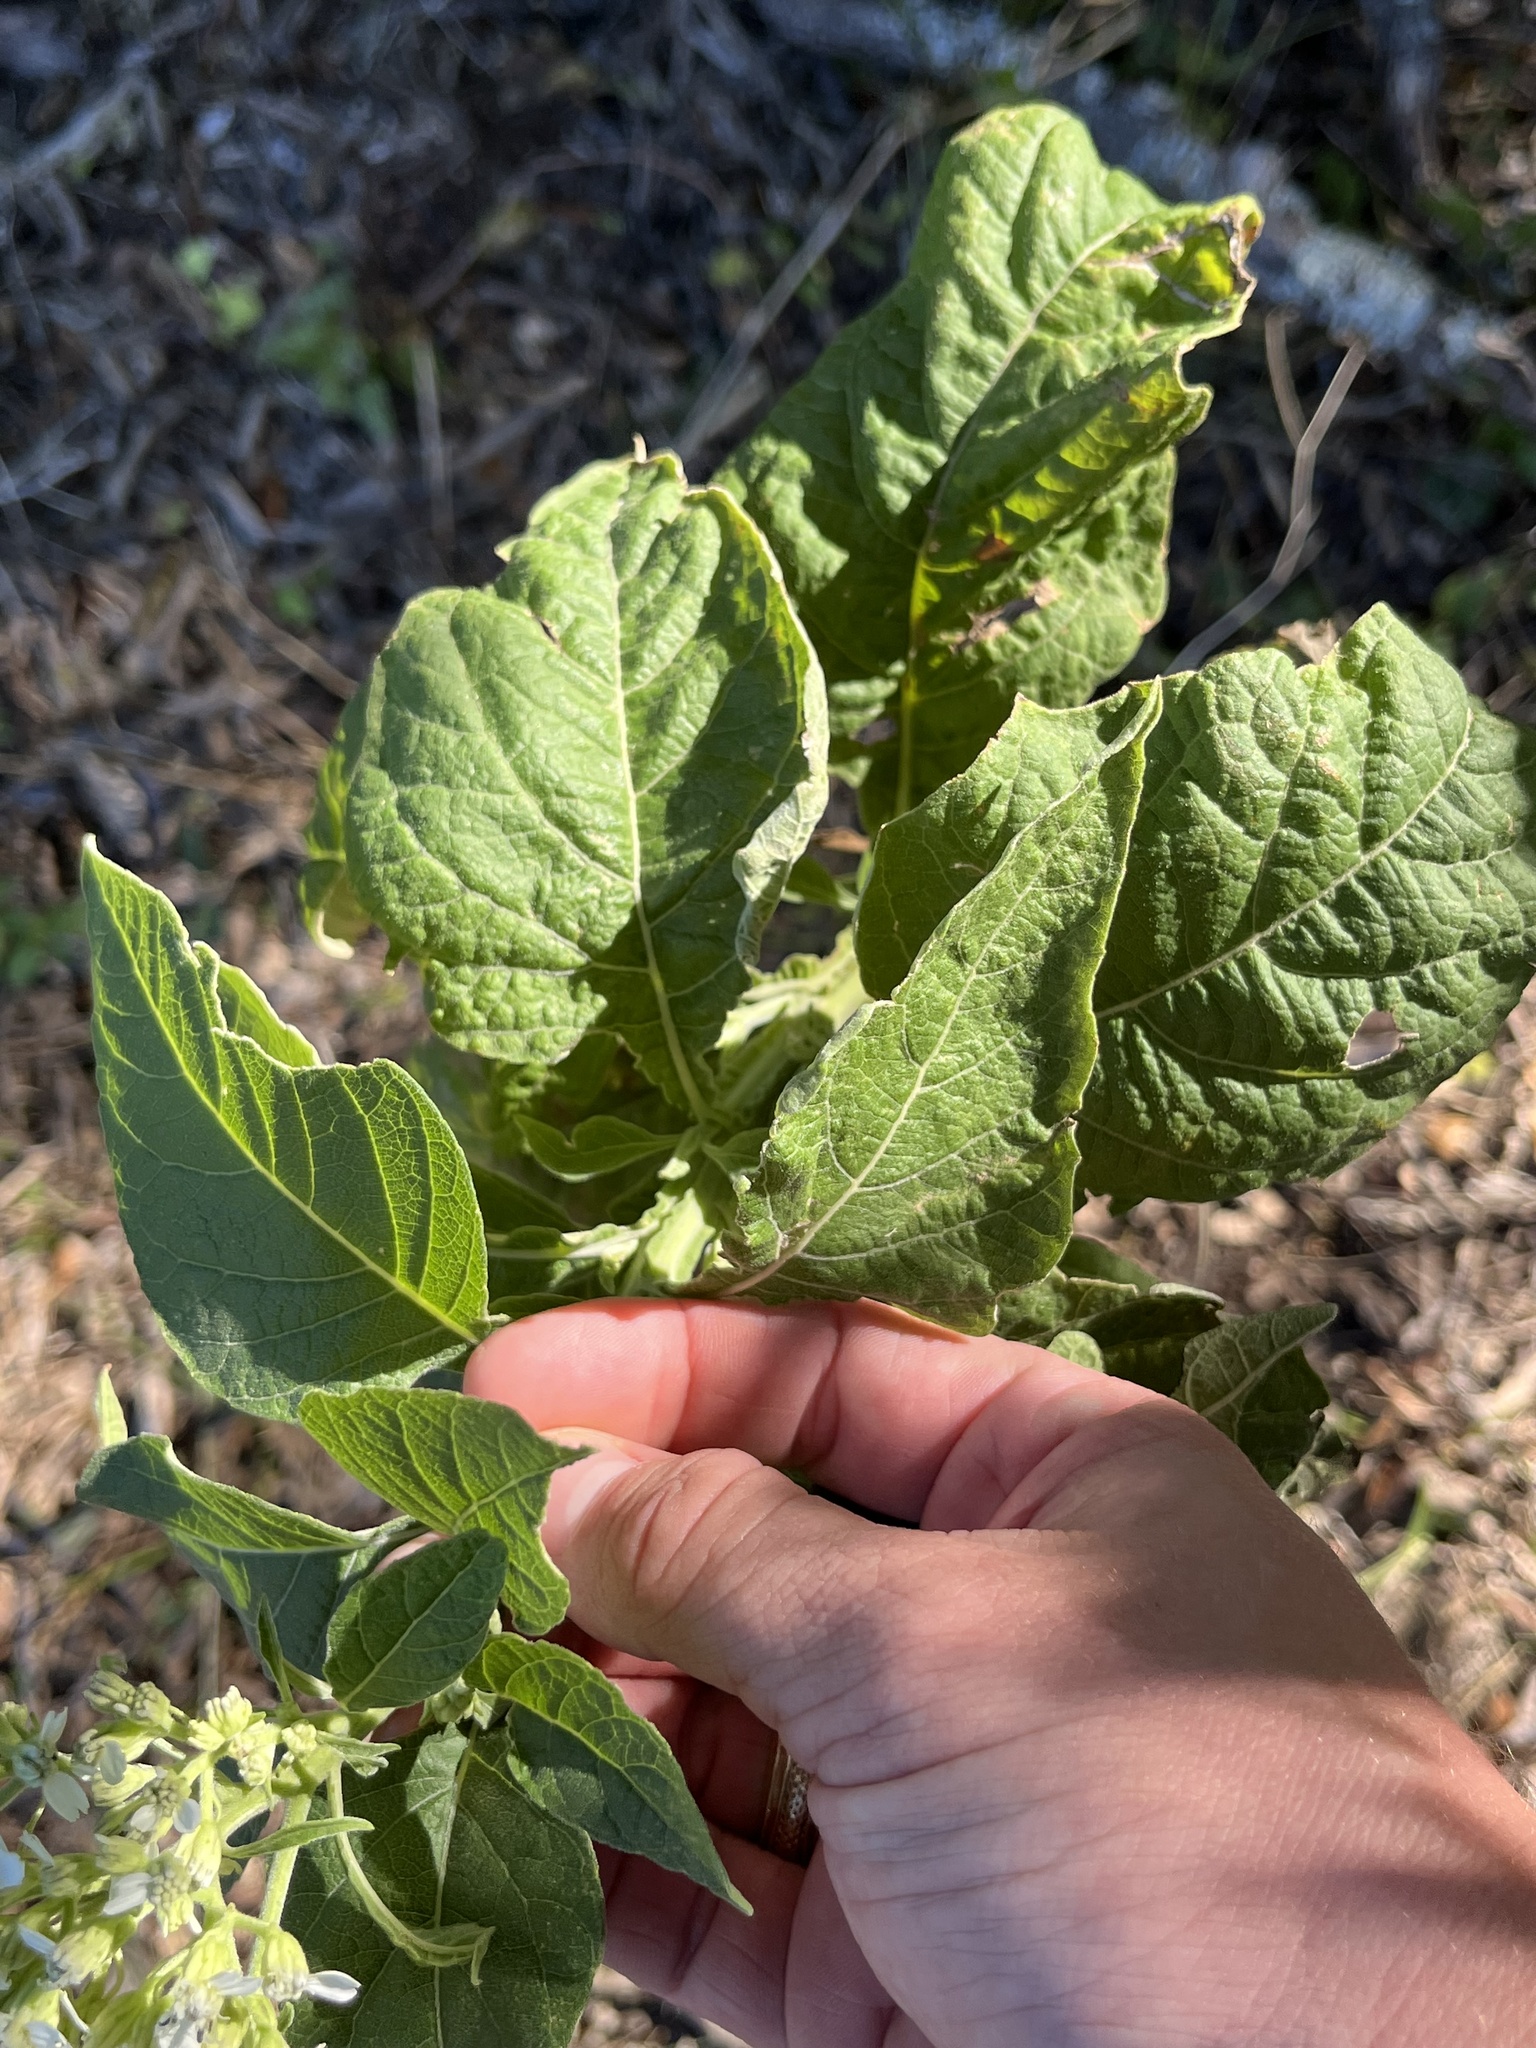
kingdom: Plantae
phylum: Tracheophyta
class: Magnoliopsida
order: Asterales
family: Asteraceae
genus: Verbesina
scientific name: Verbesina virginica
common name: Frostweed
